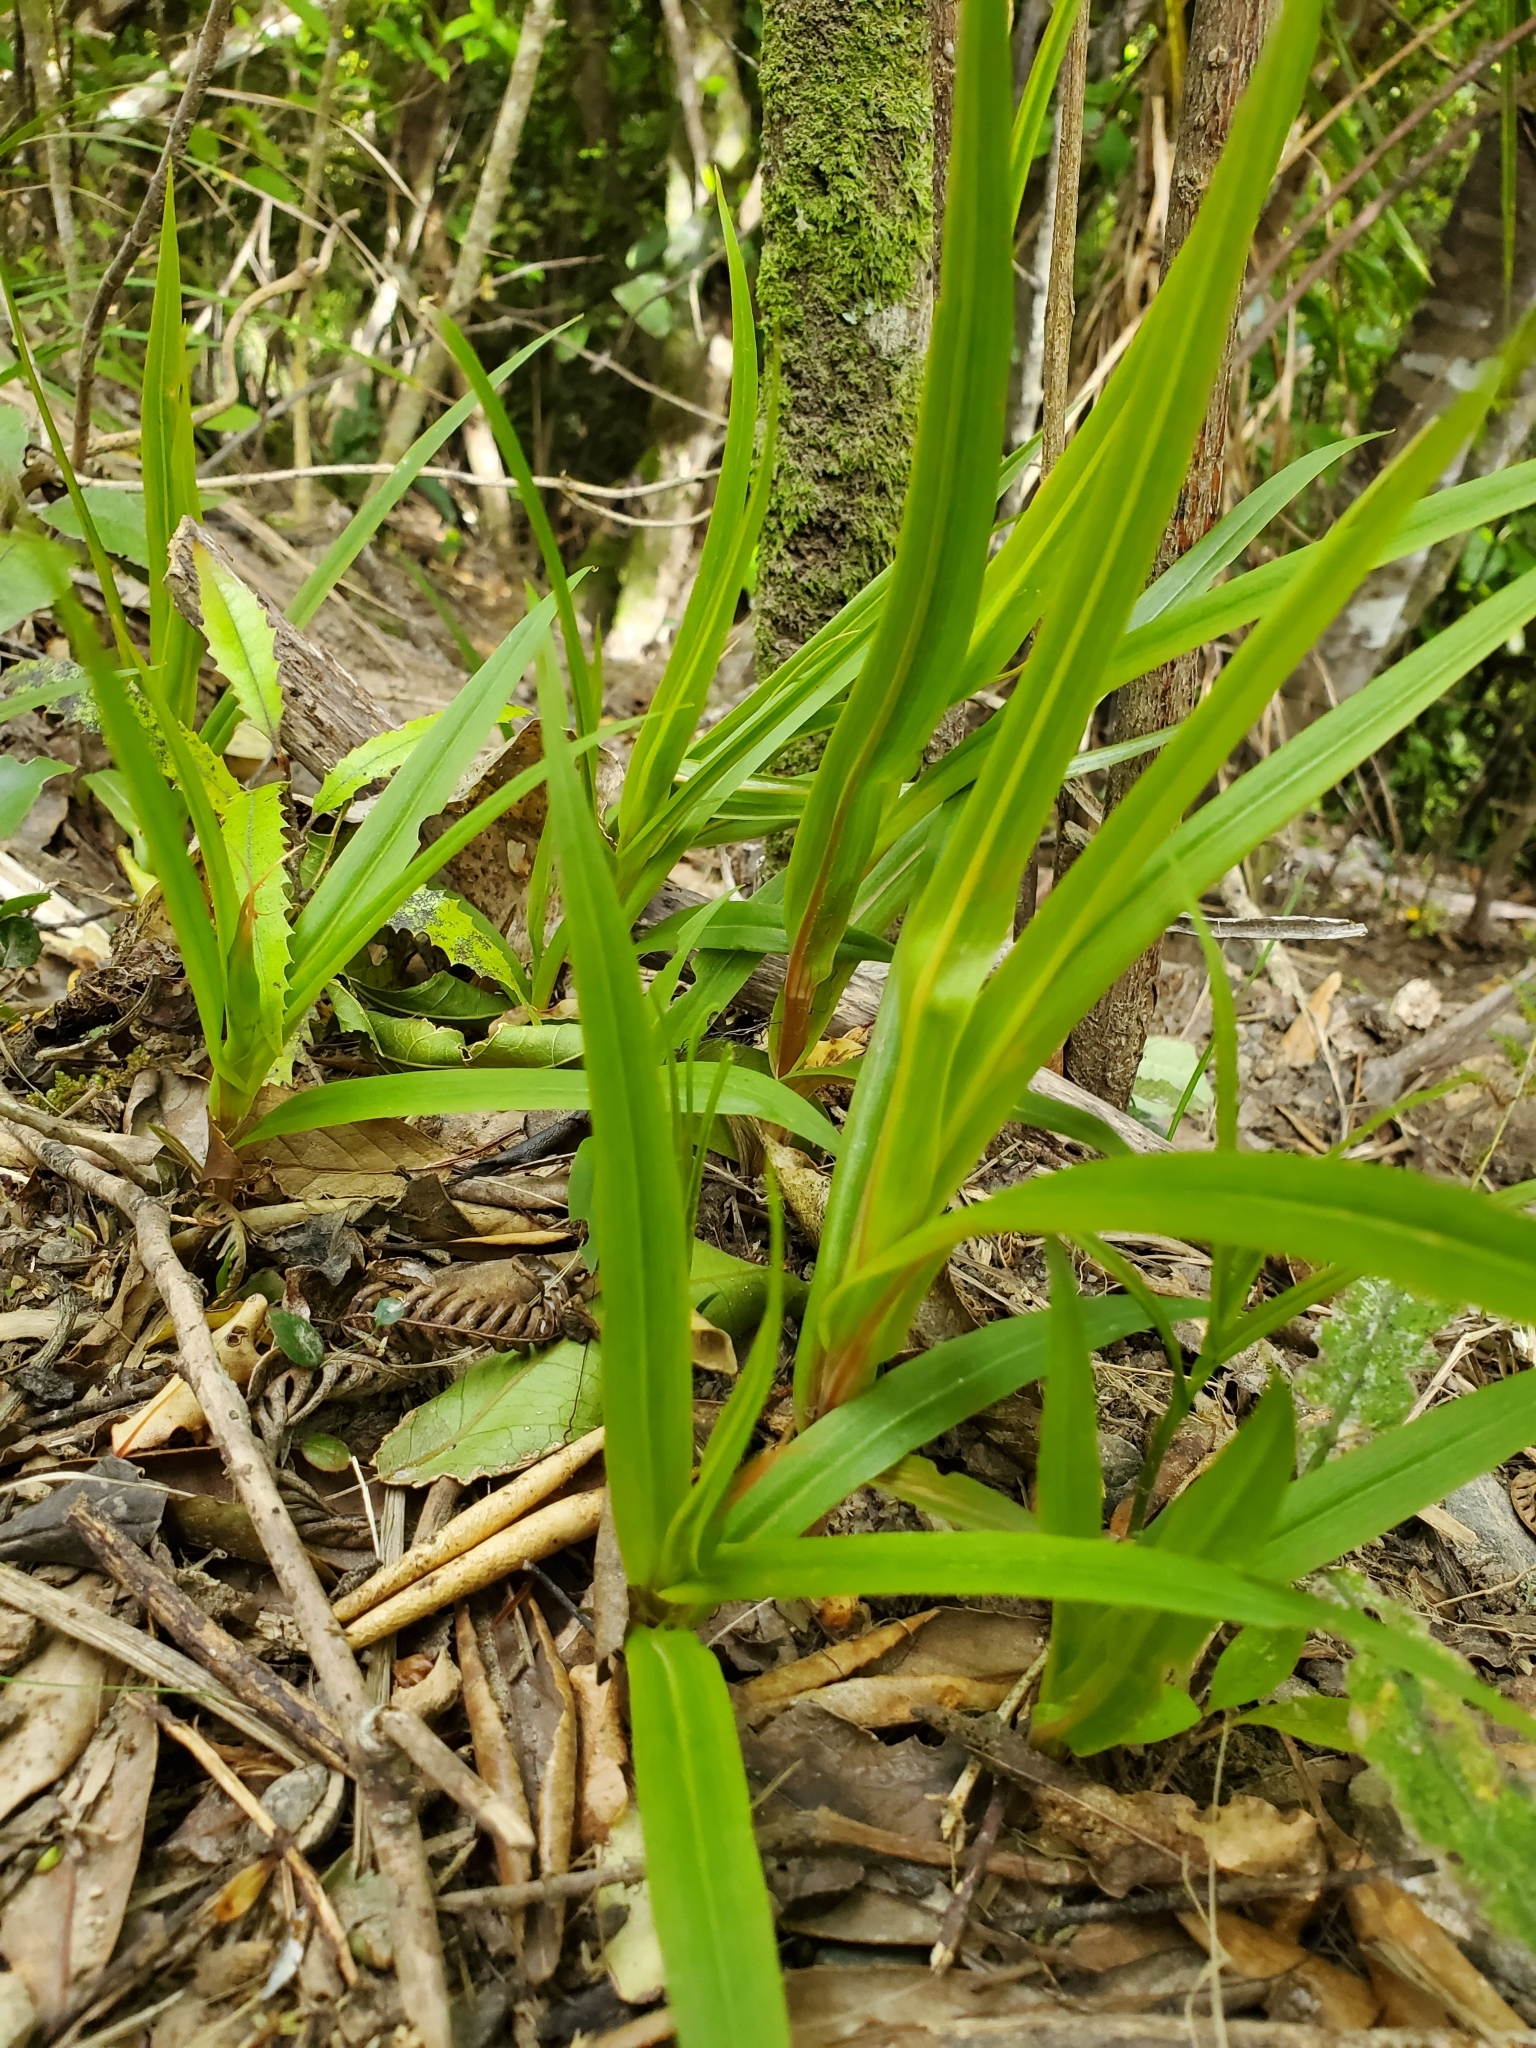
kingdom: Plantae
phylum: Tracheophyta
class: Liliopsida
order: Asparagales
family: Orchidaceae
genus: Pterostylis
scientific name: Pterostylis banksii
